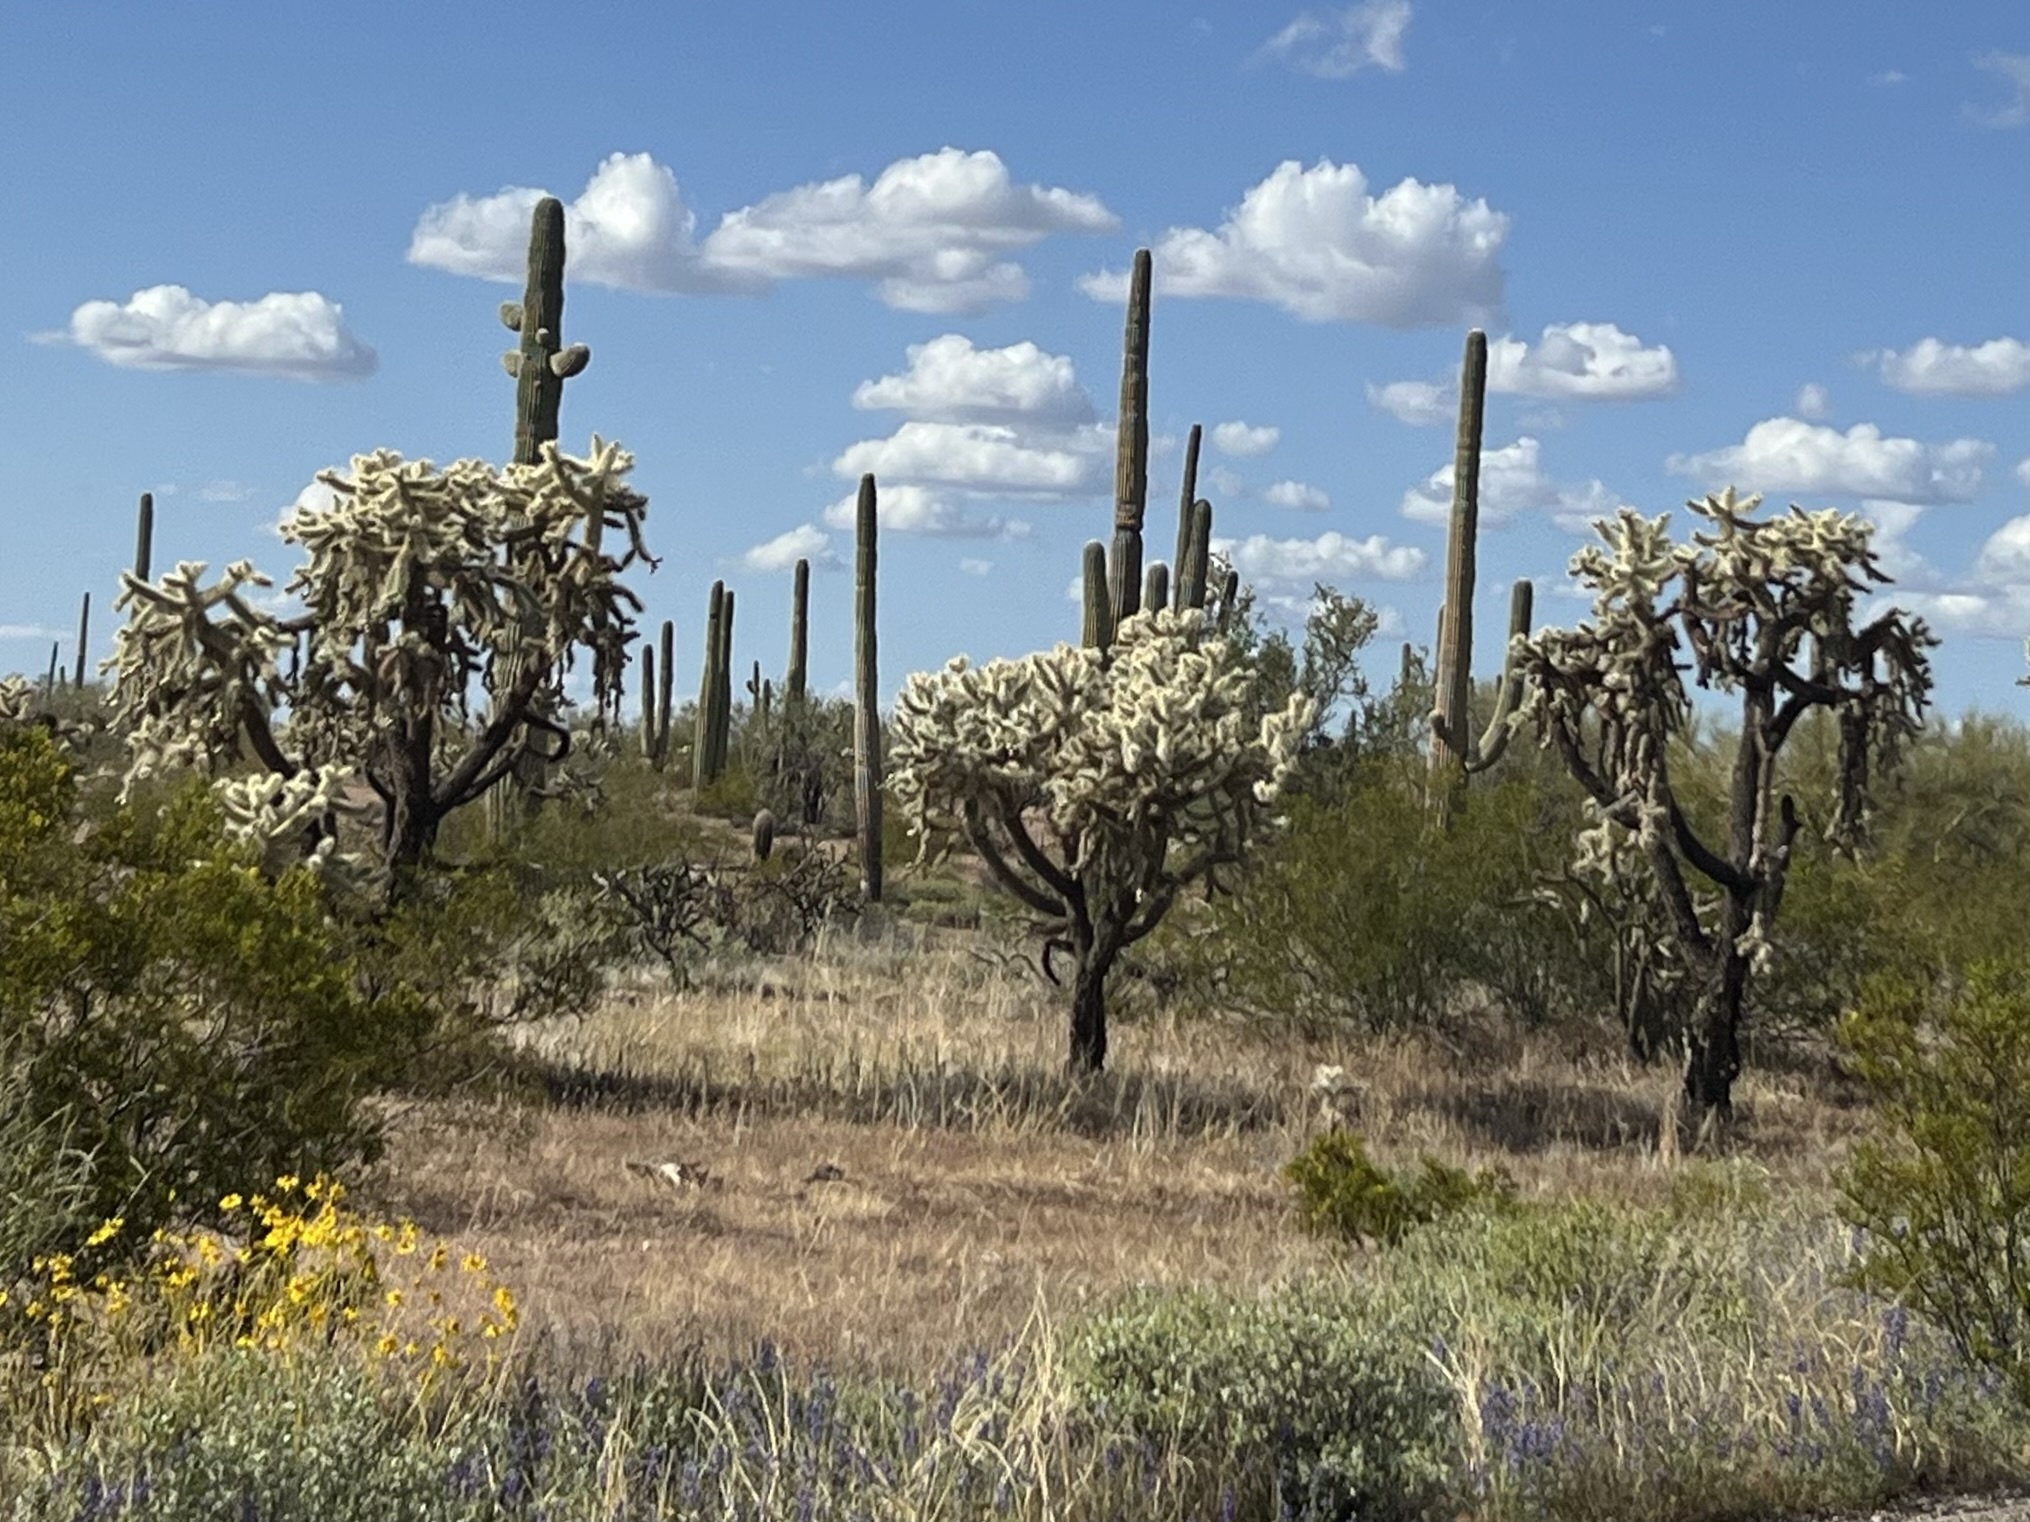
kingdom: Plantae
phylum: Tracheophyta
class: Magnoliopsida
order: Caryophyllales
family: Cactaceae
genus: Cylindropuntia
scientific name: Cylindropuntia fulgida
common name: Jumping cholla
